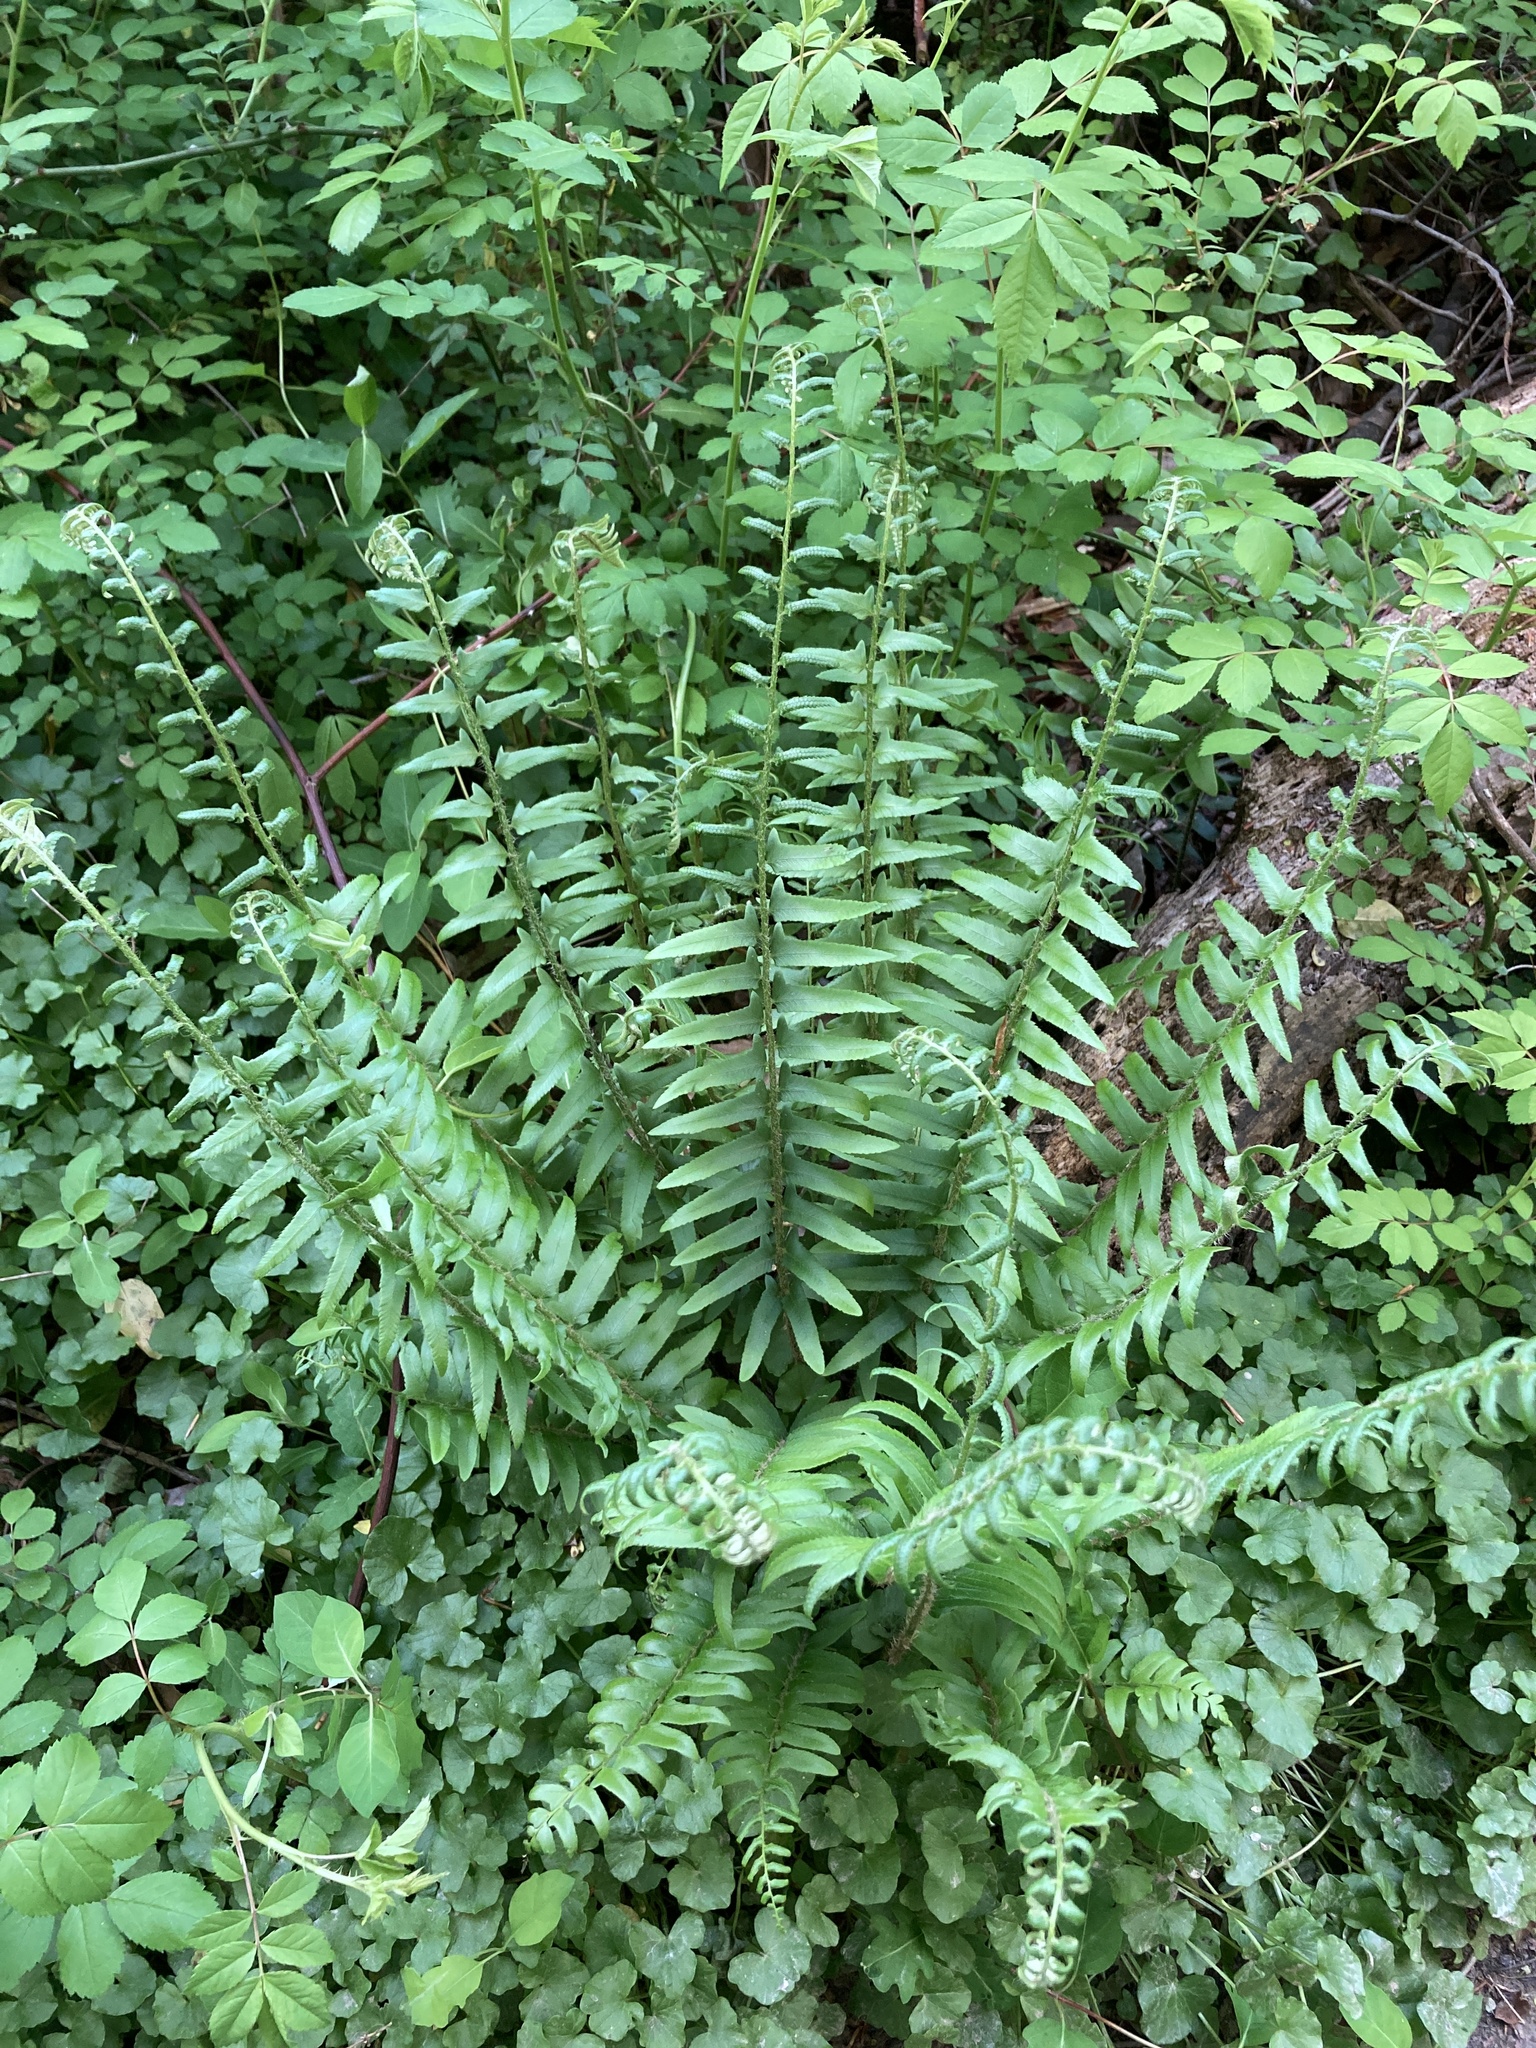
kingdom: Plantae
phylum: Tracheophyta
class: Polypodiopsida
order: Polypodiales
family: Dryopteridaceae
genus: Polystichum
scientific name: Polystichum acrostichoides
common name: Christmas fern
